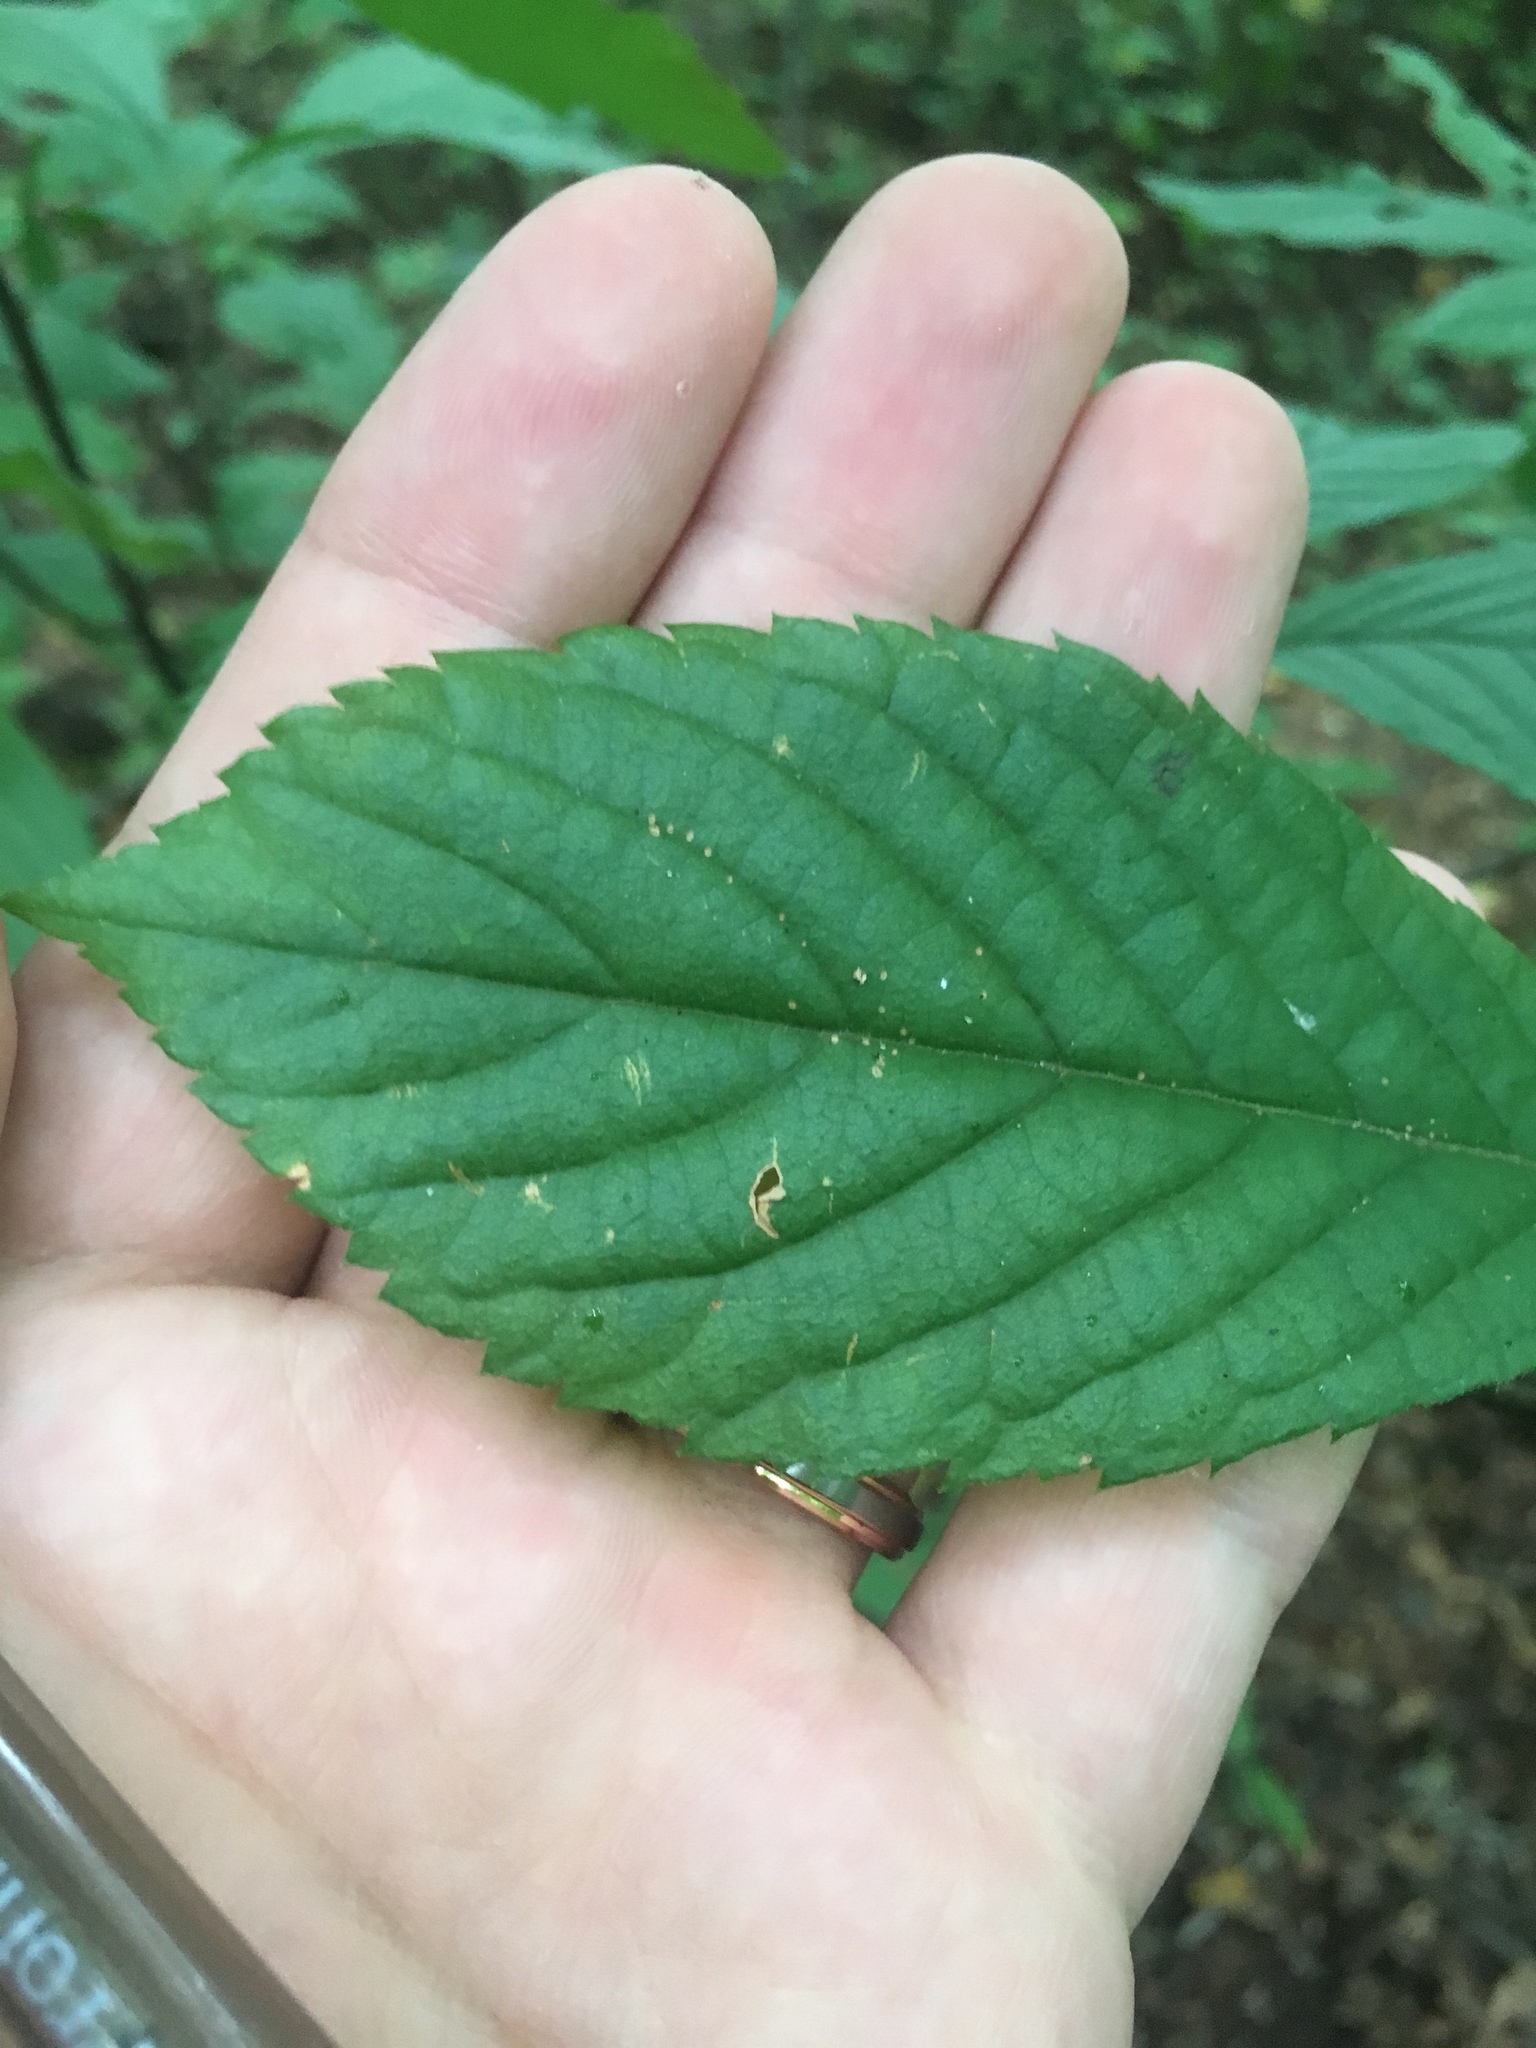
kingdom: Plantae
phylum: Tracheophyta
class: Magnoliopsida
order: Ericales
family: Clethraceae
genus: Clethra
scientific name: Clethra alnifolia
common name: Sweet pepperbush
